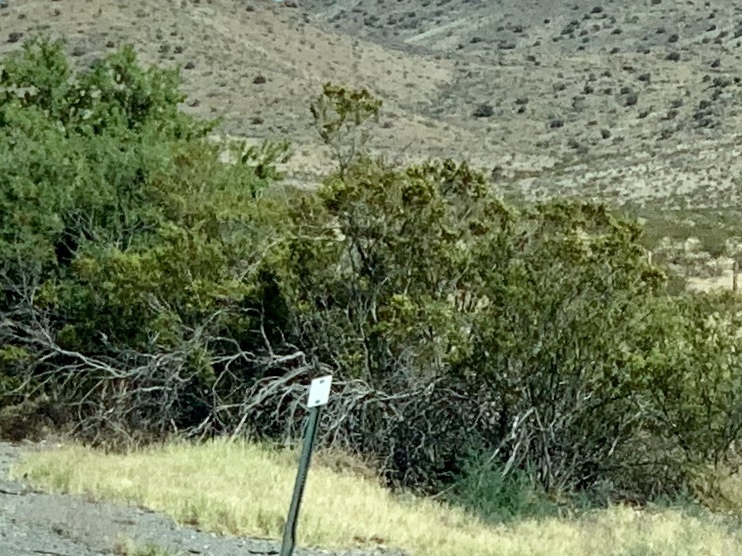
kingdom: Plantae
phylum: Tracheophyta
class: Magnoliopsida
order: Zygophyllales
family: Zygophyllaceae
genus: Larrea
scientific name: Larrea tridentata
